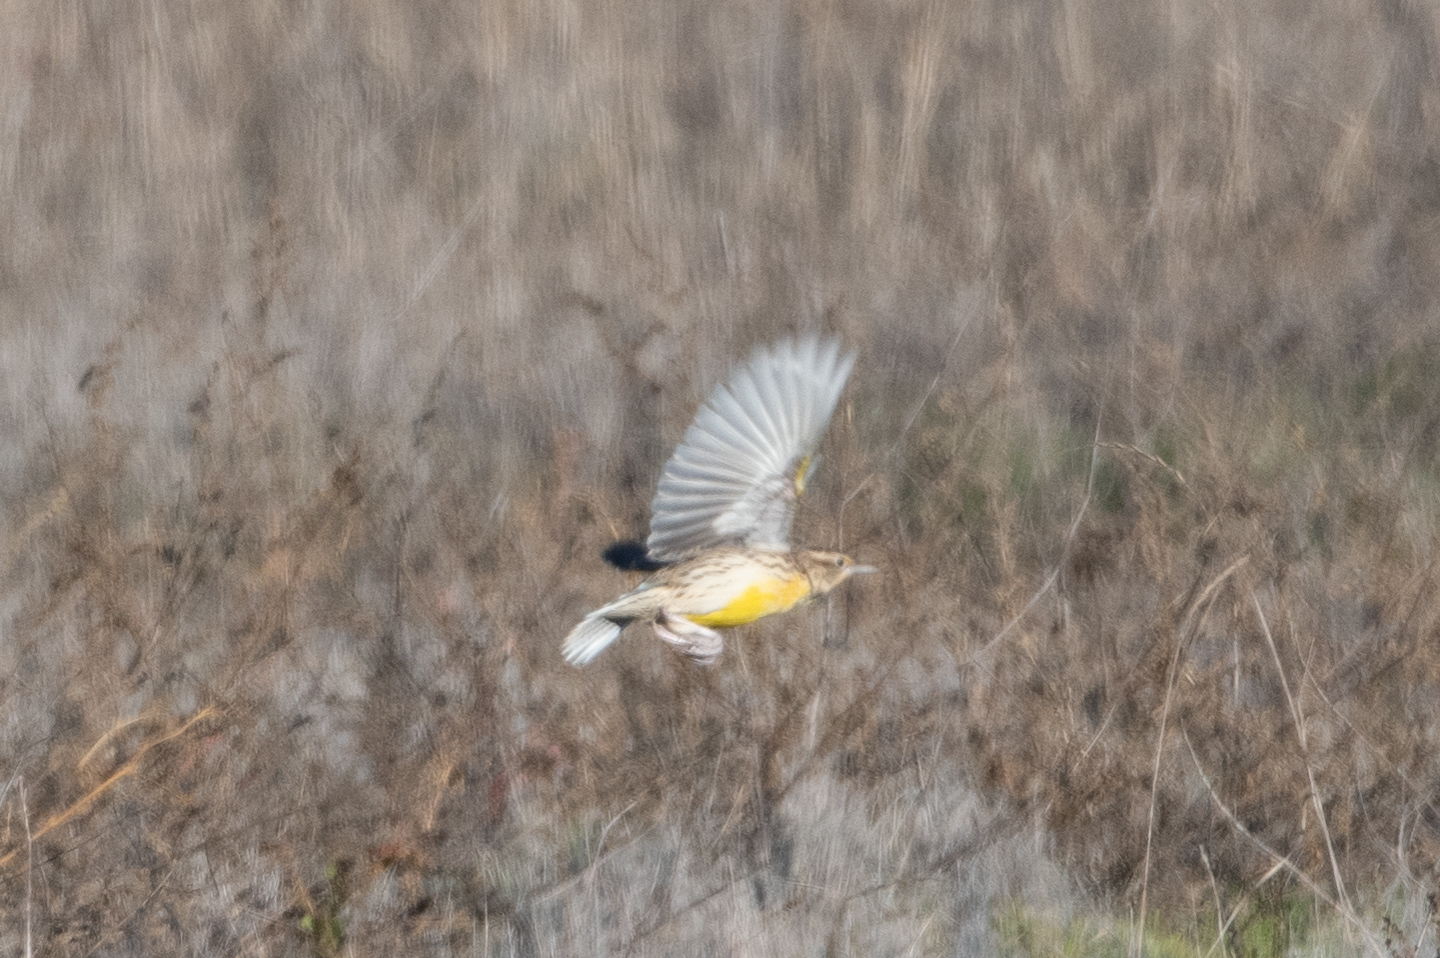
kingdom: Animalia
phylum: Chordata
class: Aves
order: Passeriformes
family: Icteridae
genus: Sturnella
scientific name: Sturnella neglecta
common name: Western meadowlark
